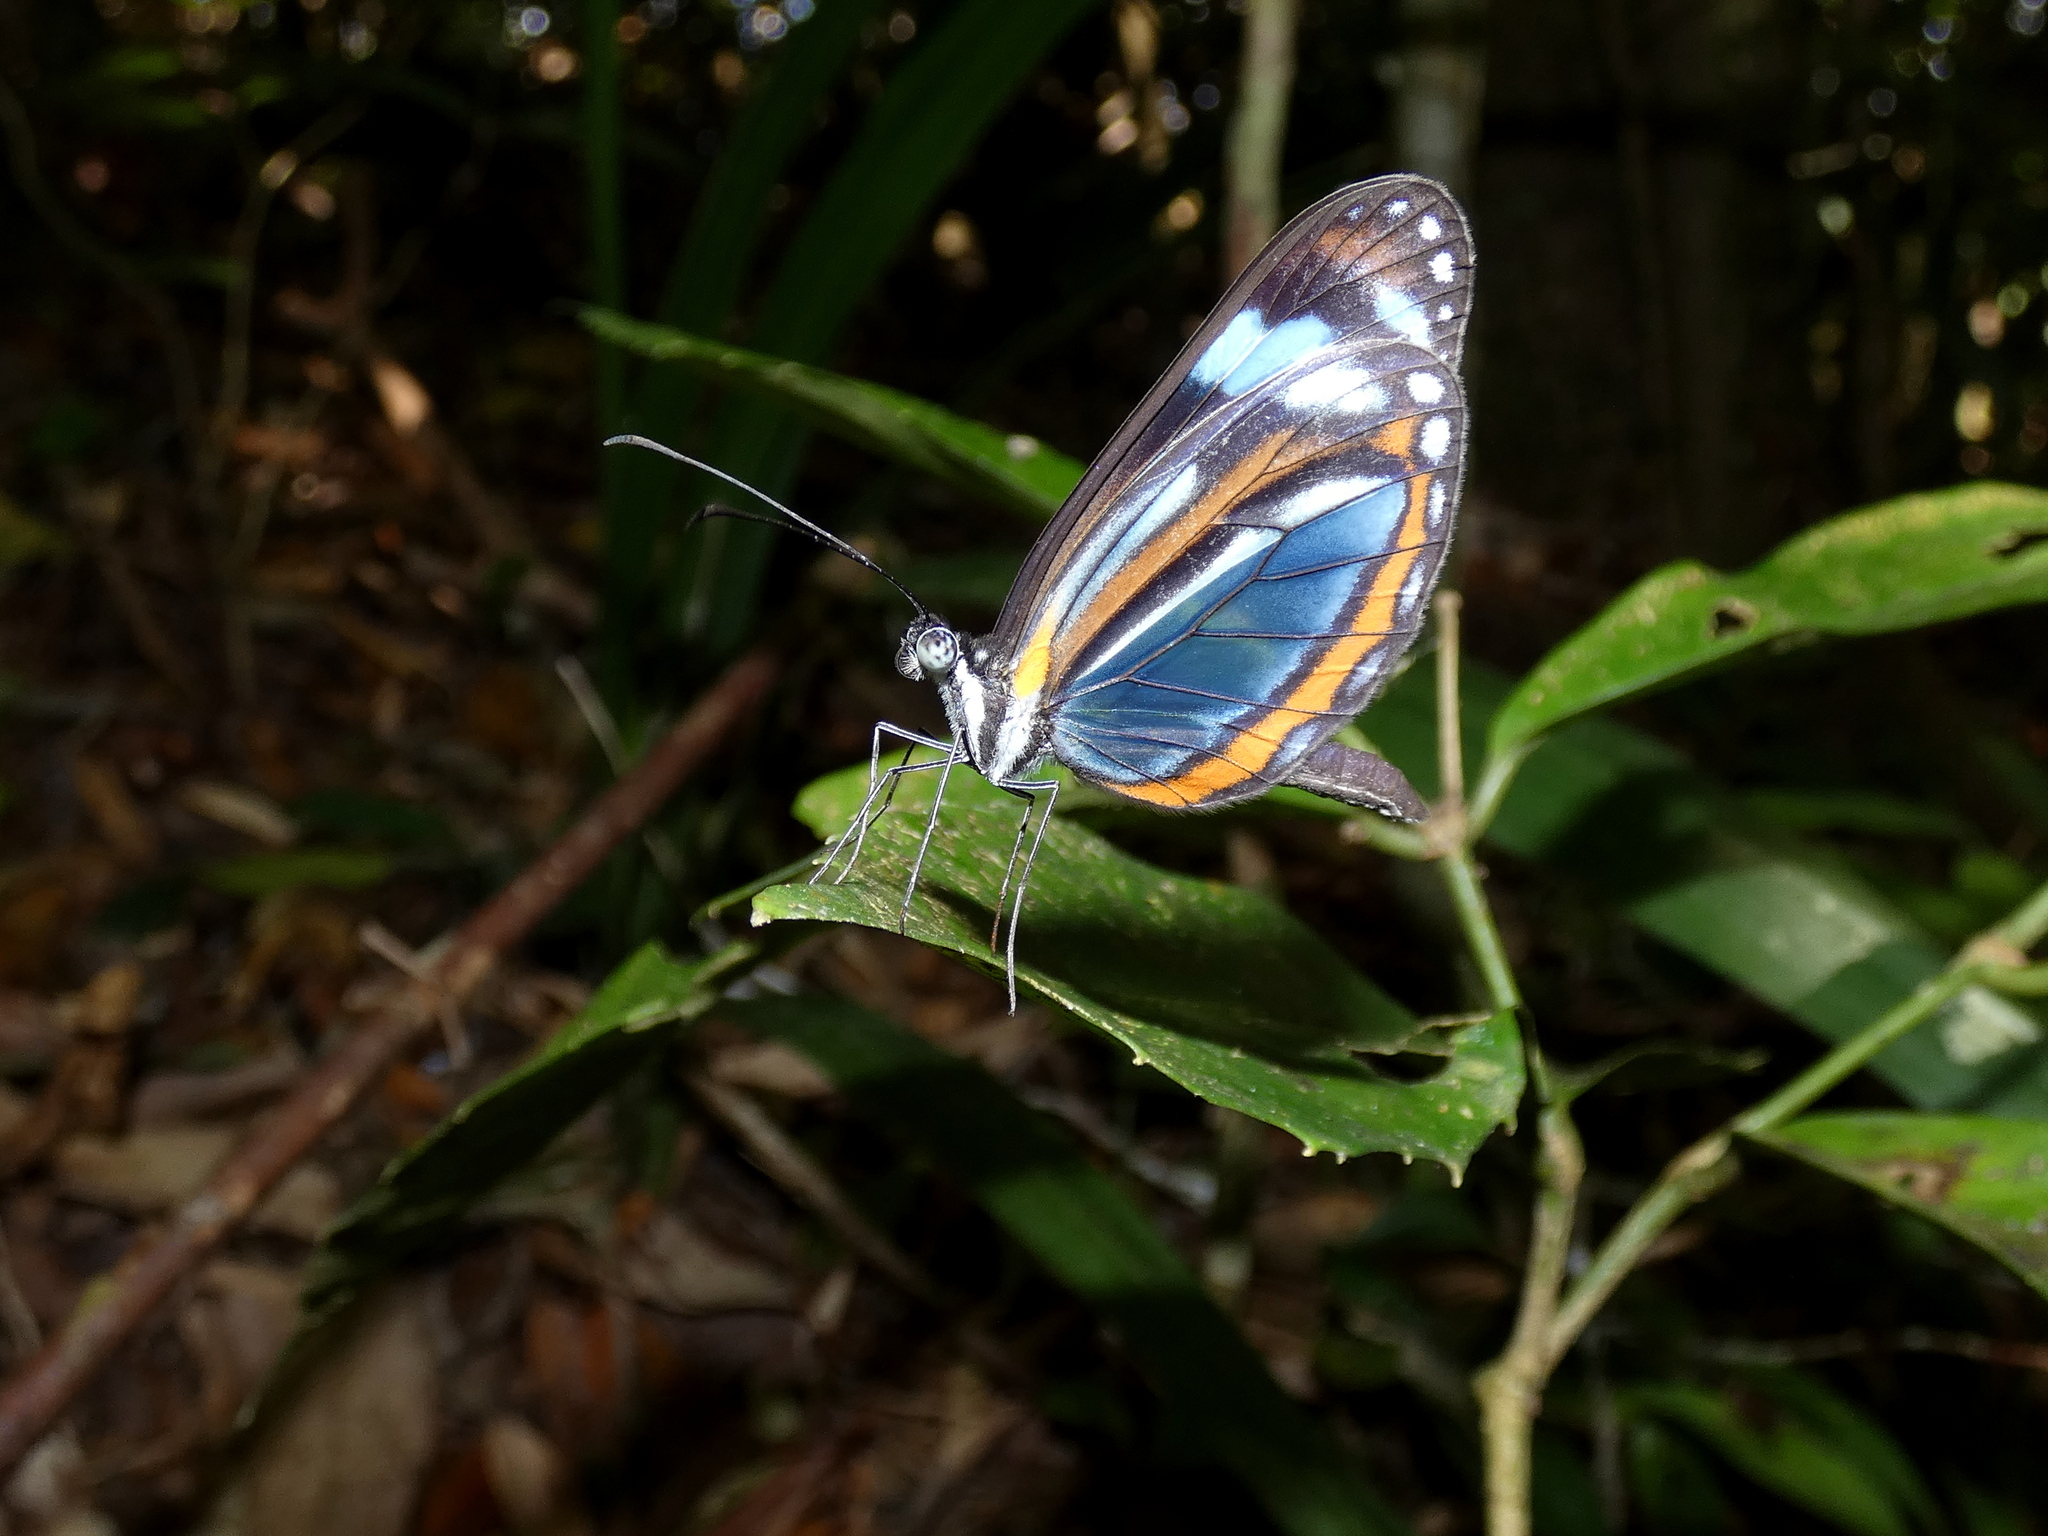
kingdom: Animalia
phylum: Arthropoda
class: Insecta
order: Lepidoptera
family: Pieridae
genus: Dismorphia
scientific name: Dismorphia theucharila
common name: Clearwing mimic-white
